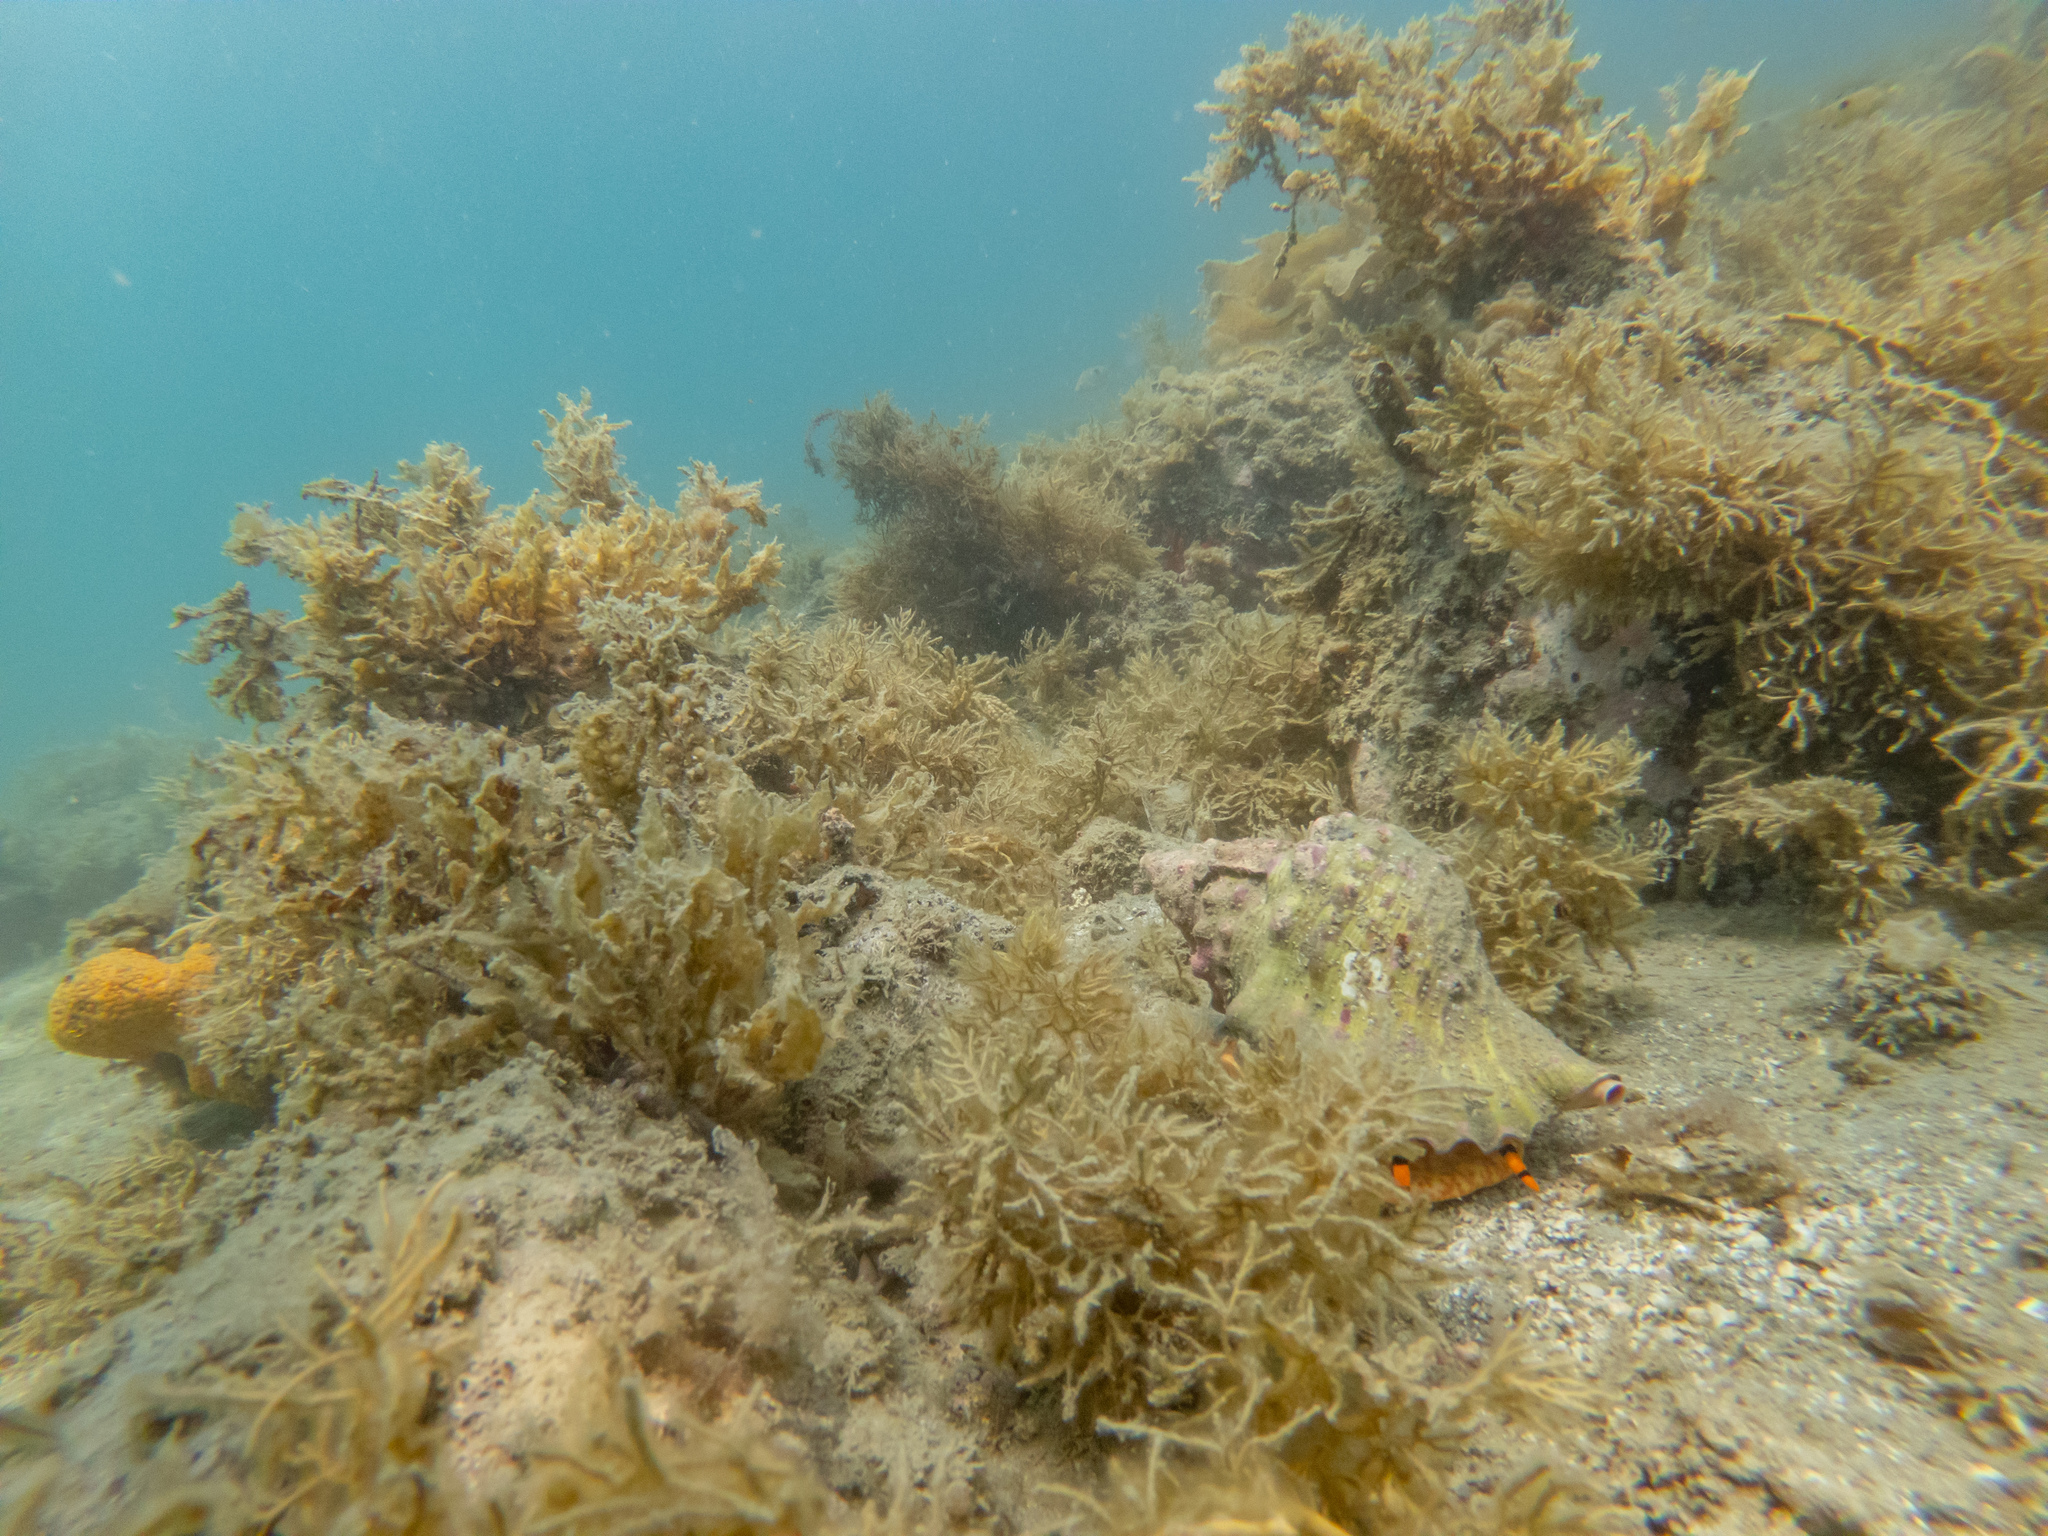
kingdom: Animalia
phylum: Mollusca
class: Gastropoda
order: Littorinimorpha
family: Charoniidae
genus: Charonia
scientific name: Charonia lampas
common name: Knobbed triton
